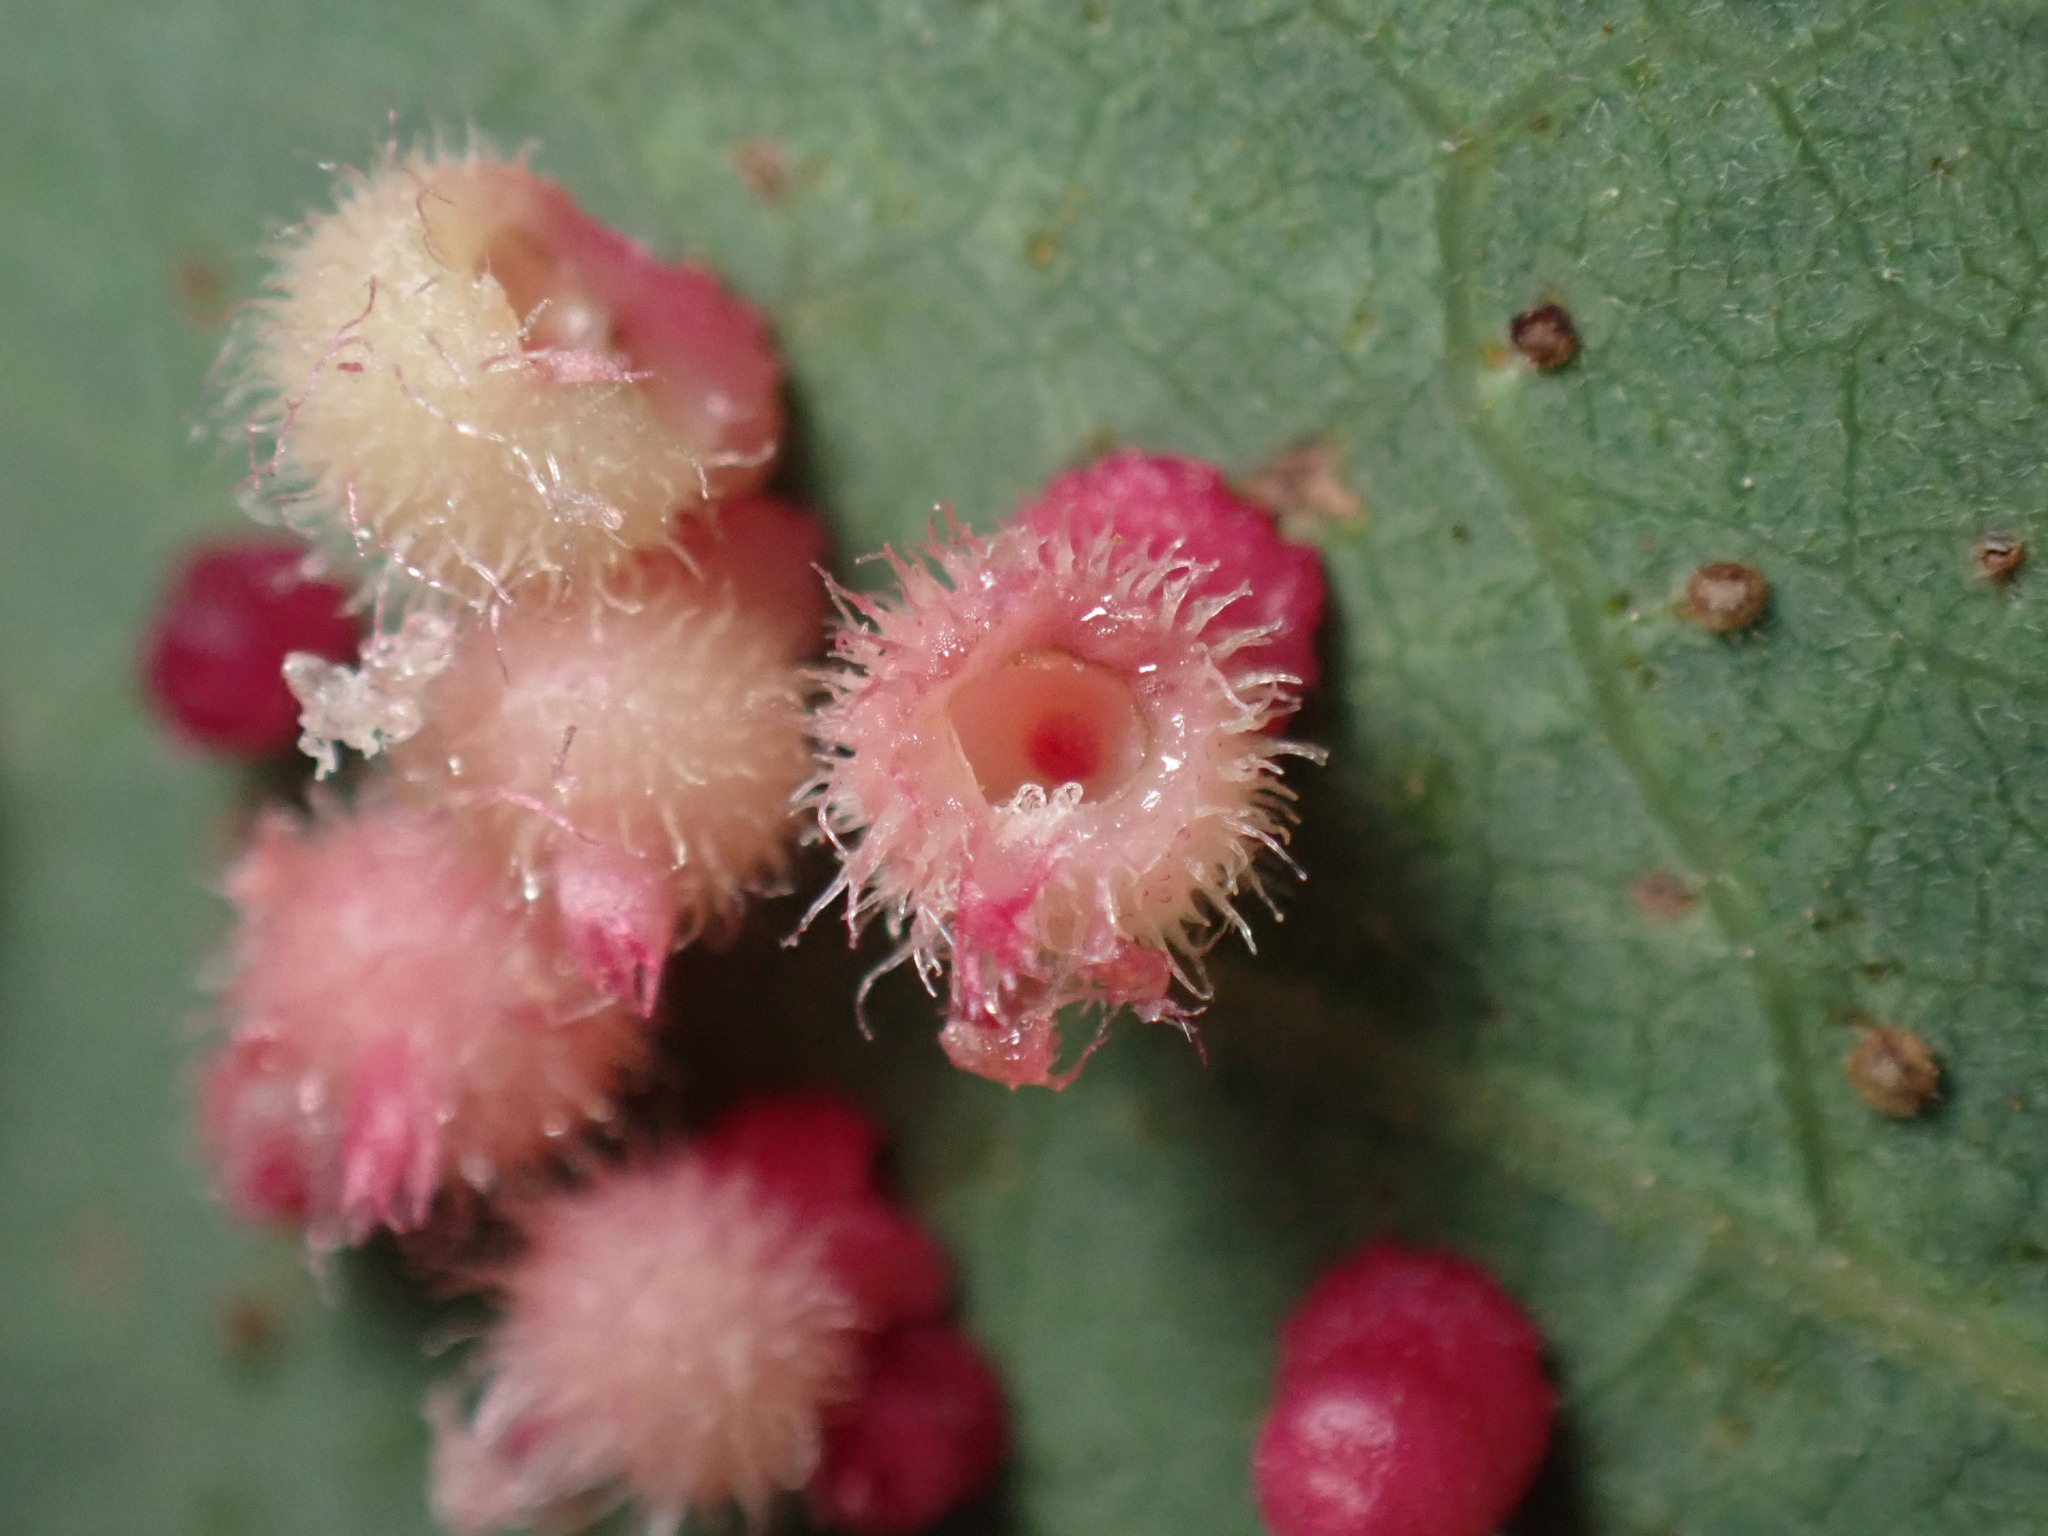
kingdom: Animalia
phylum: Arthropoda
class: Insecta
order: Hymenoptera
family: Cynipidae
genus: Andricus
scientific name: Andricus
